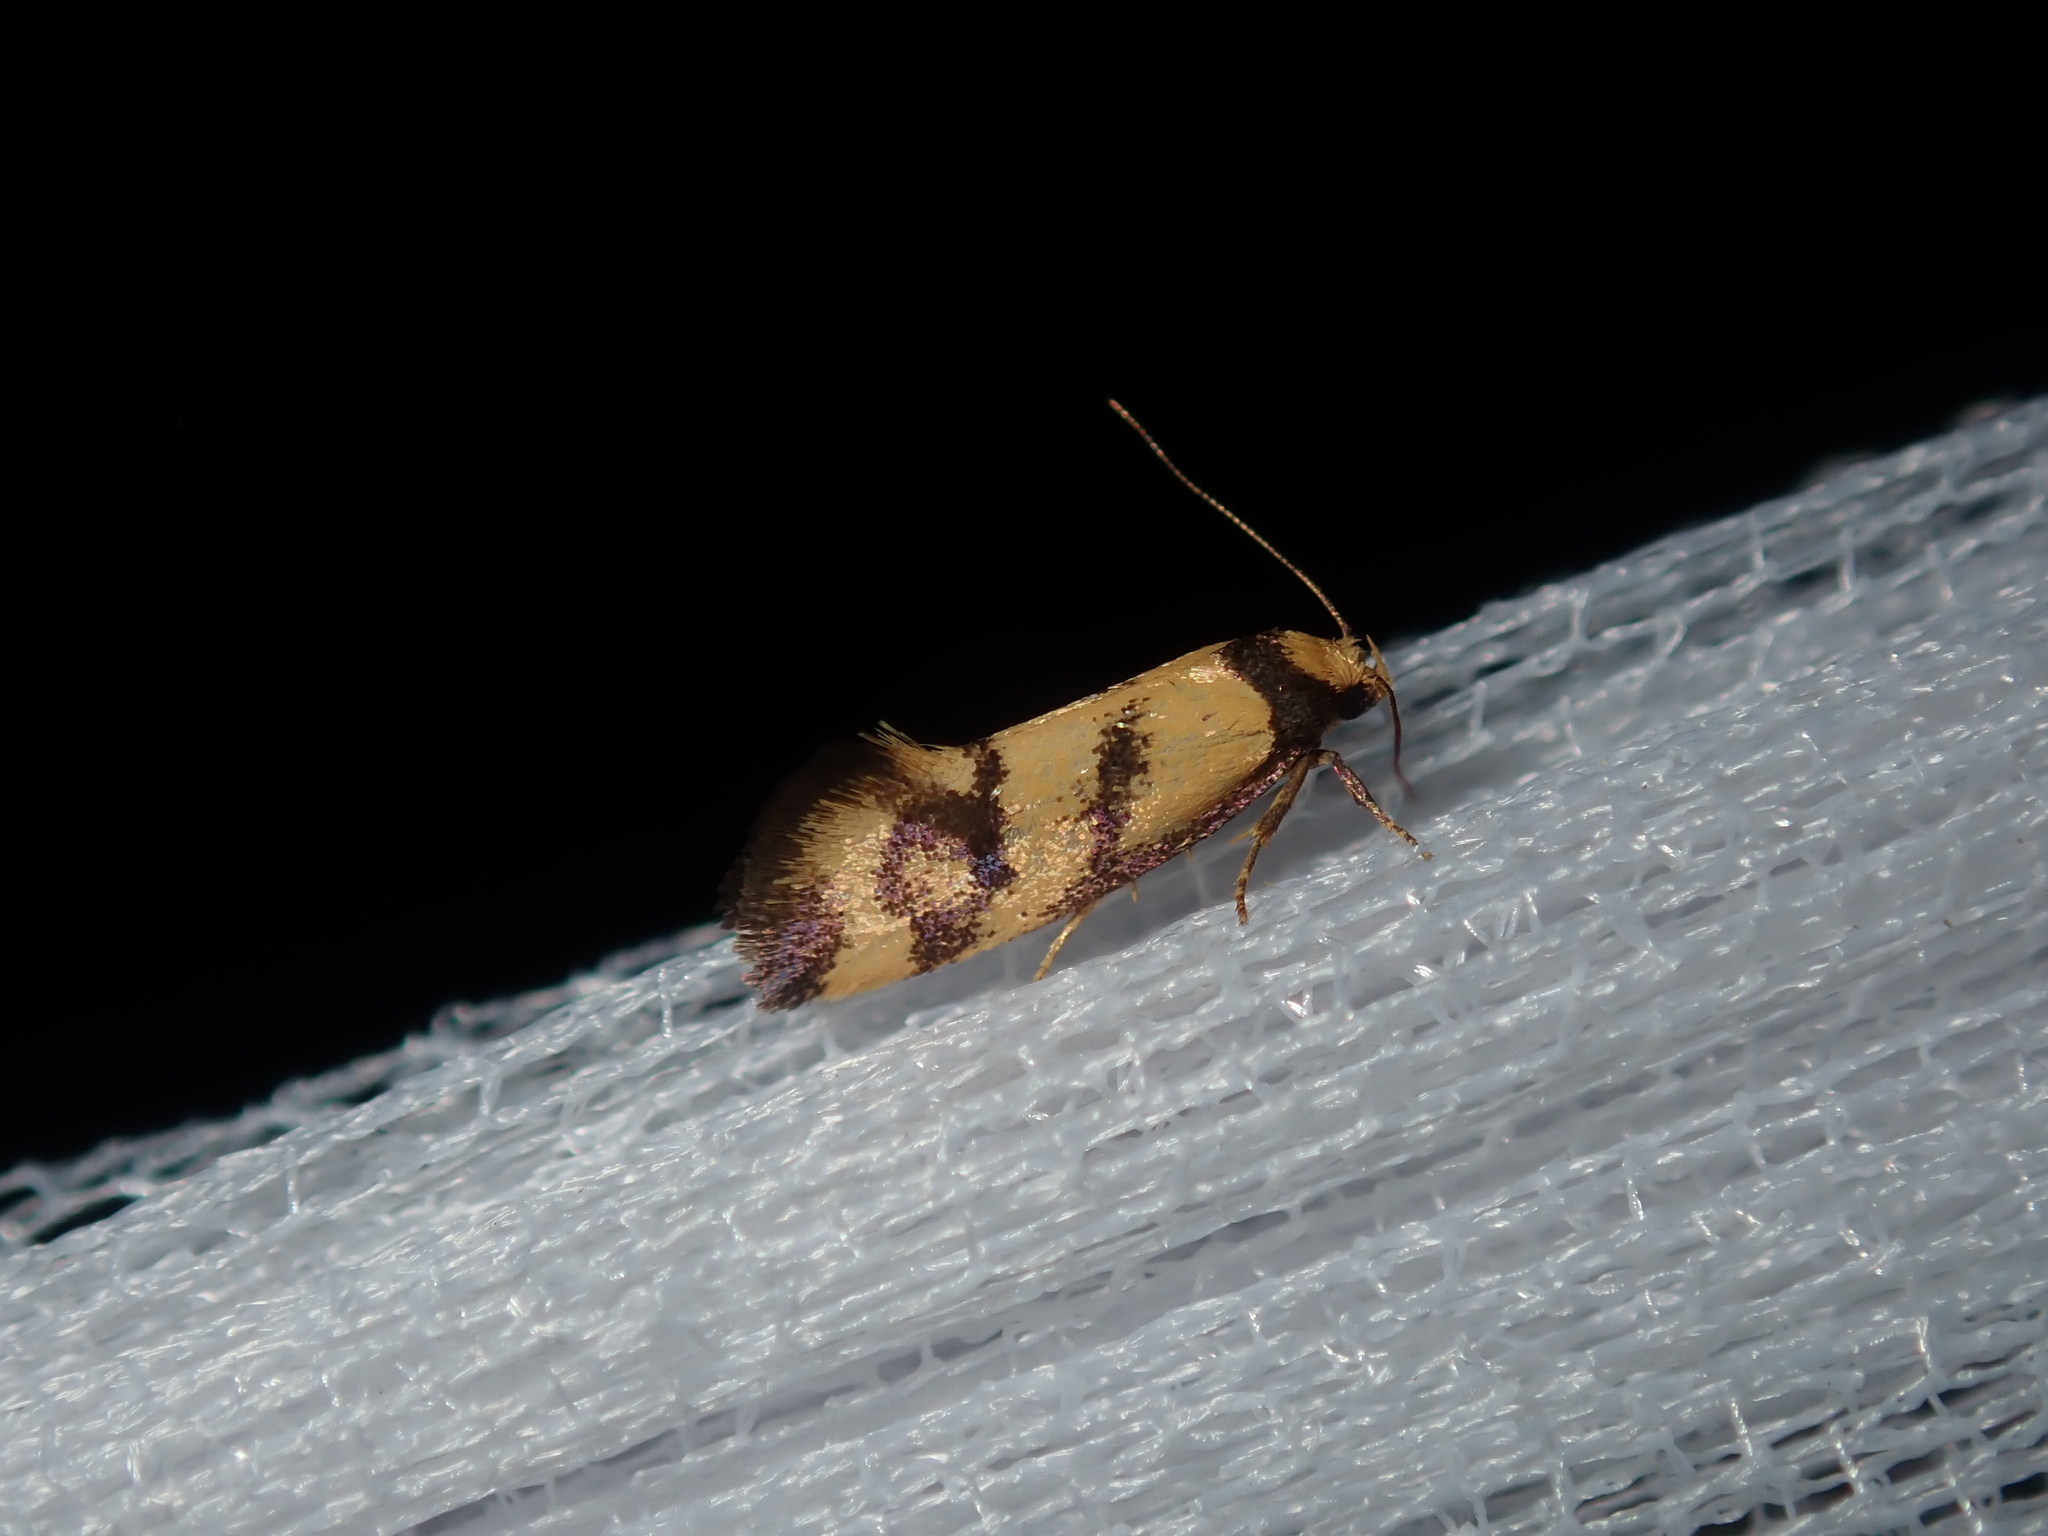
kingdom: Animalia
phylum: Arthropoda
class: Insecta
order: Lepidoptera
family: Oecophoridae
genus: Olbonoma
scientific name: Olbonoma triptycha
